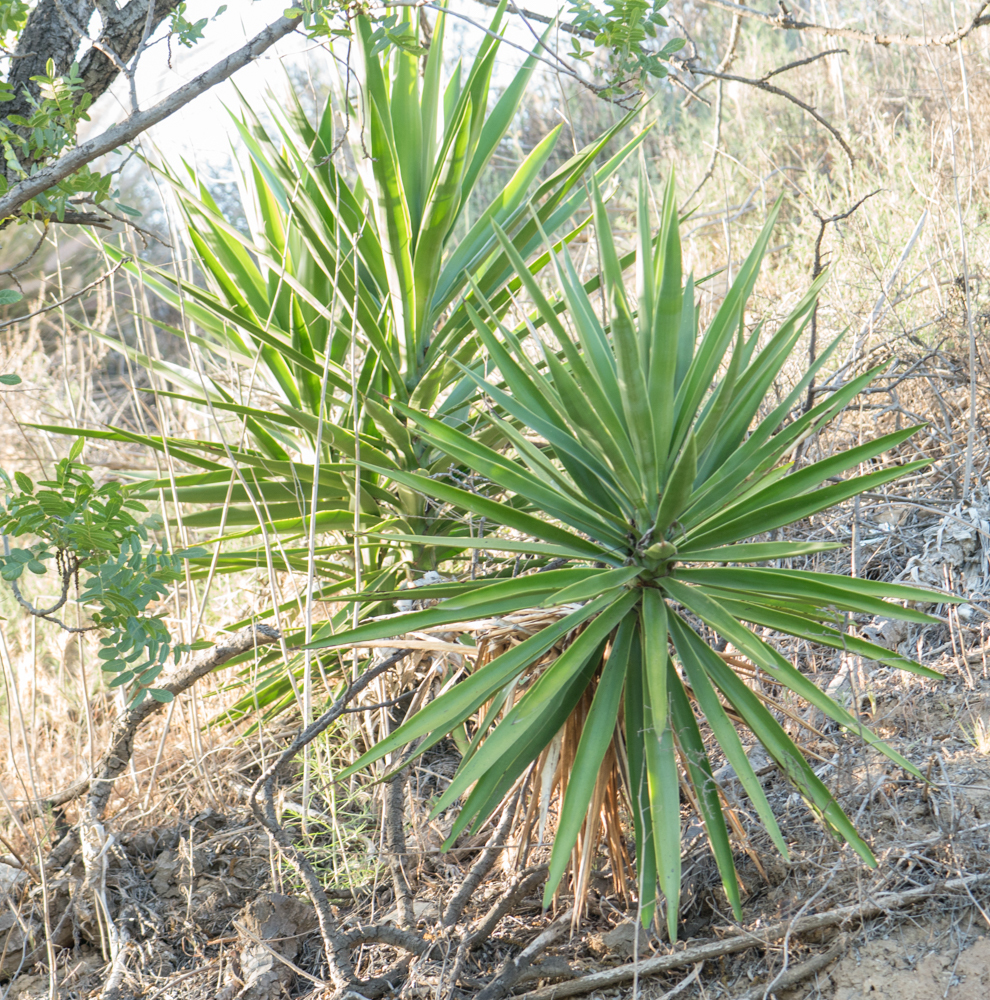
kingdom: Plantae
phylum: Tracheophyta
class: Liliopsida
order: Asparagales
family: Asparagaceae
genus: Yucca
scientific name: Yucca gigantea
